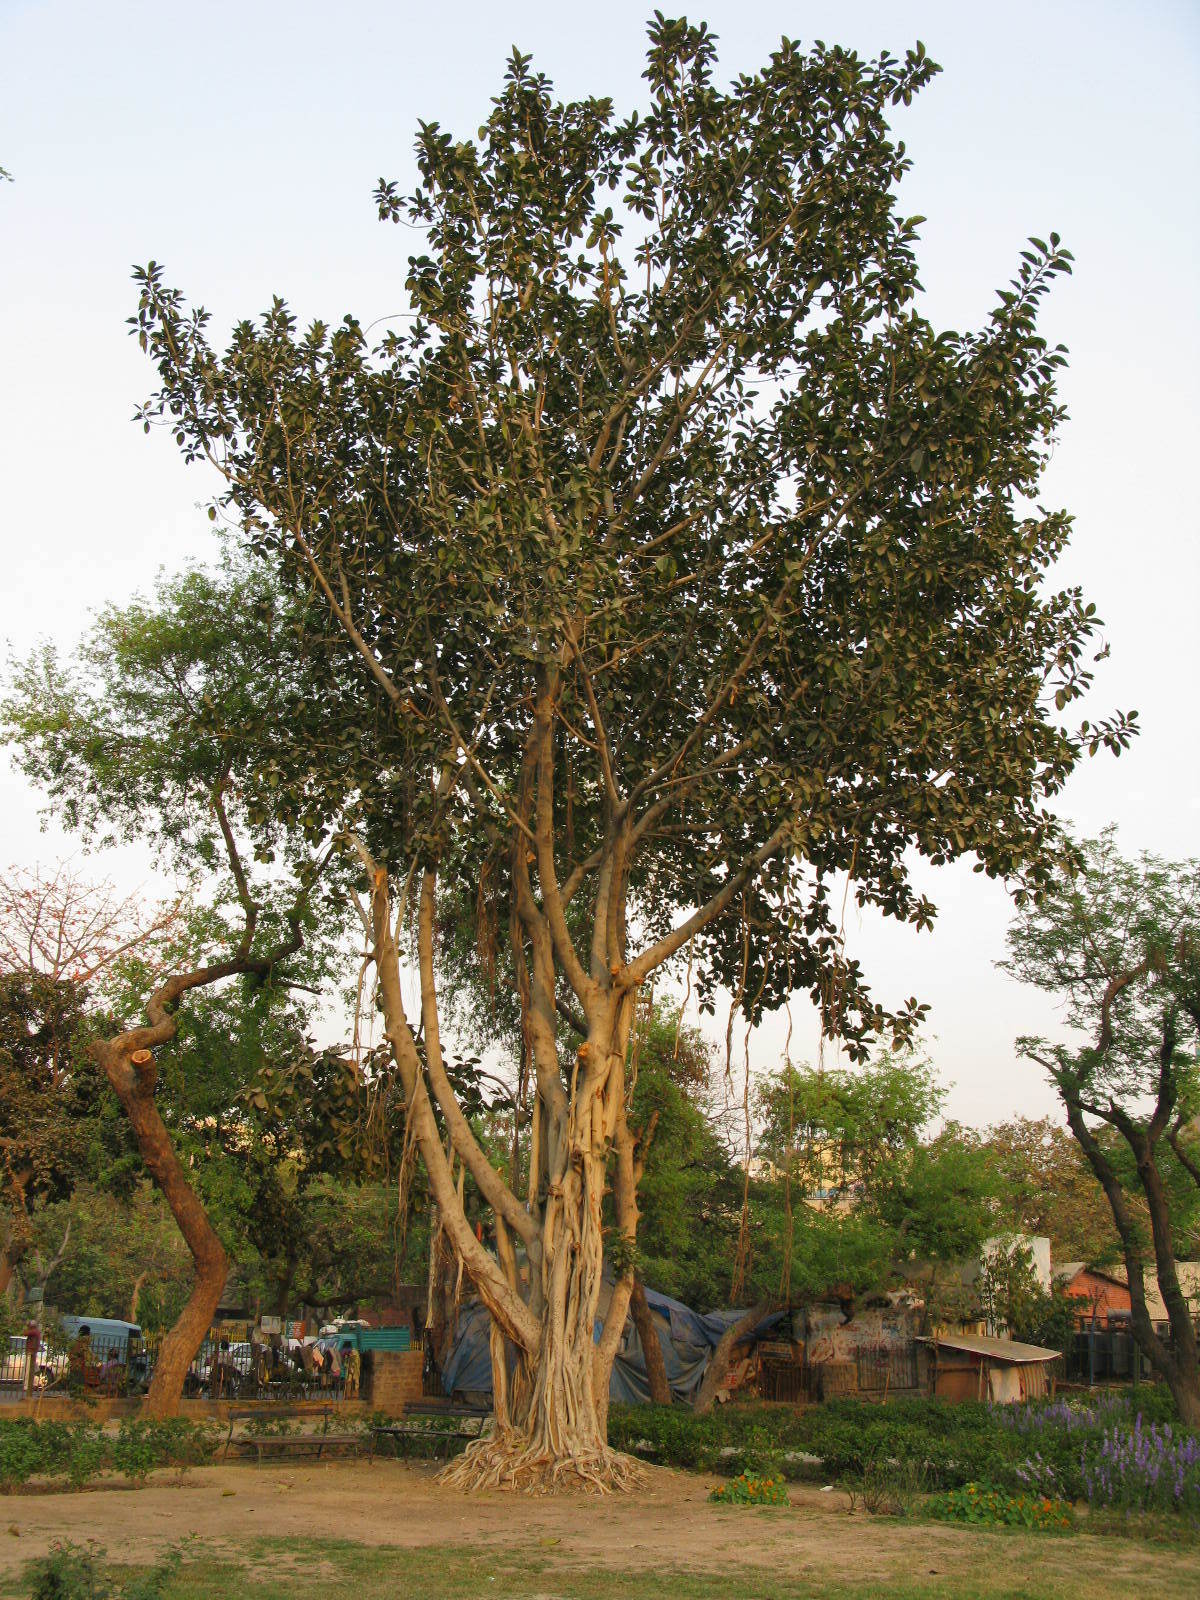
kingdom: Plantae
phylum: Tracheophyta
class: Magnoliopsida
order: Rosales
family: Moraceae
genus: Ficus
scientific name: Ficus benghalensis
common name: Indian banyan
